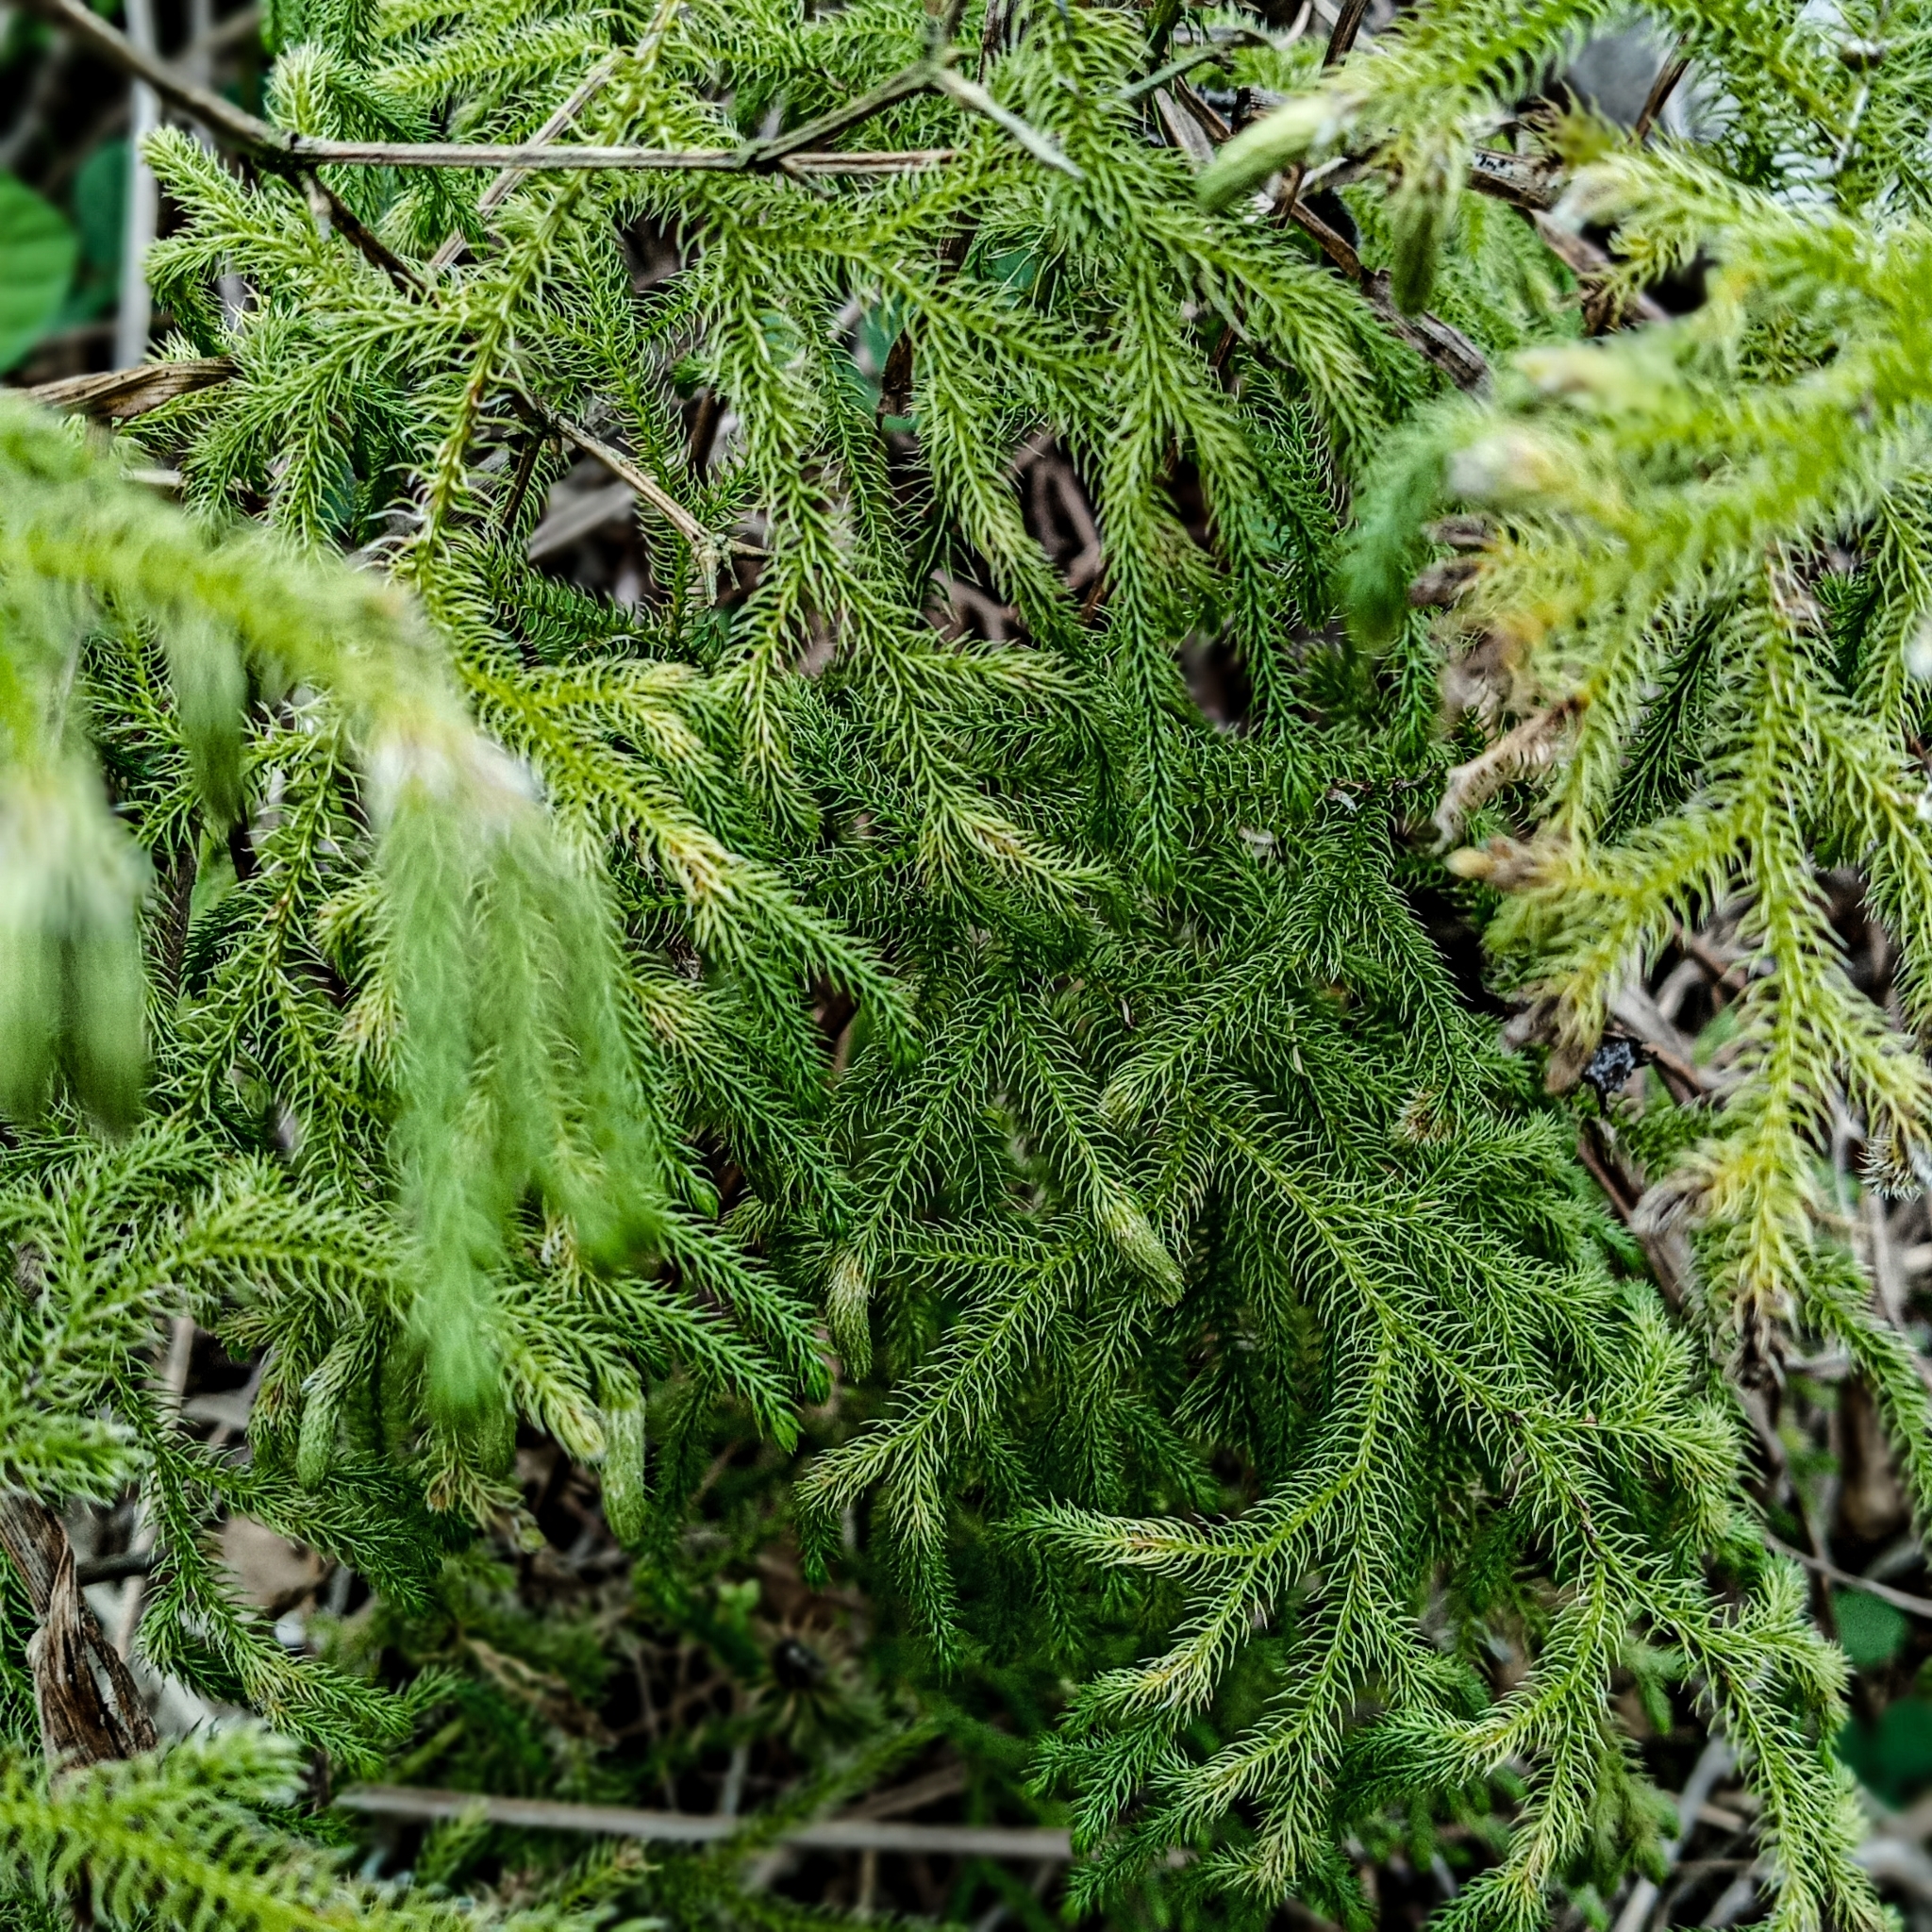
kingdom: Plantae
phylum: Tracheophyta
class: Lycopodiopsida
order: Lycopodiales
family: Lycopodiaceae
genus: Palhinhaea
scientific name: Palhinhaea cernua
